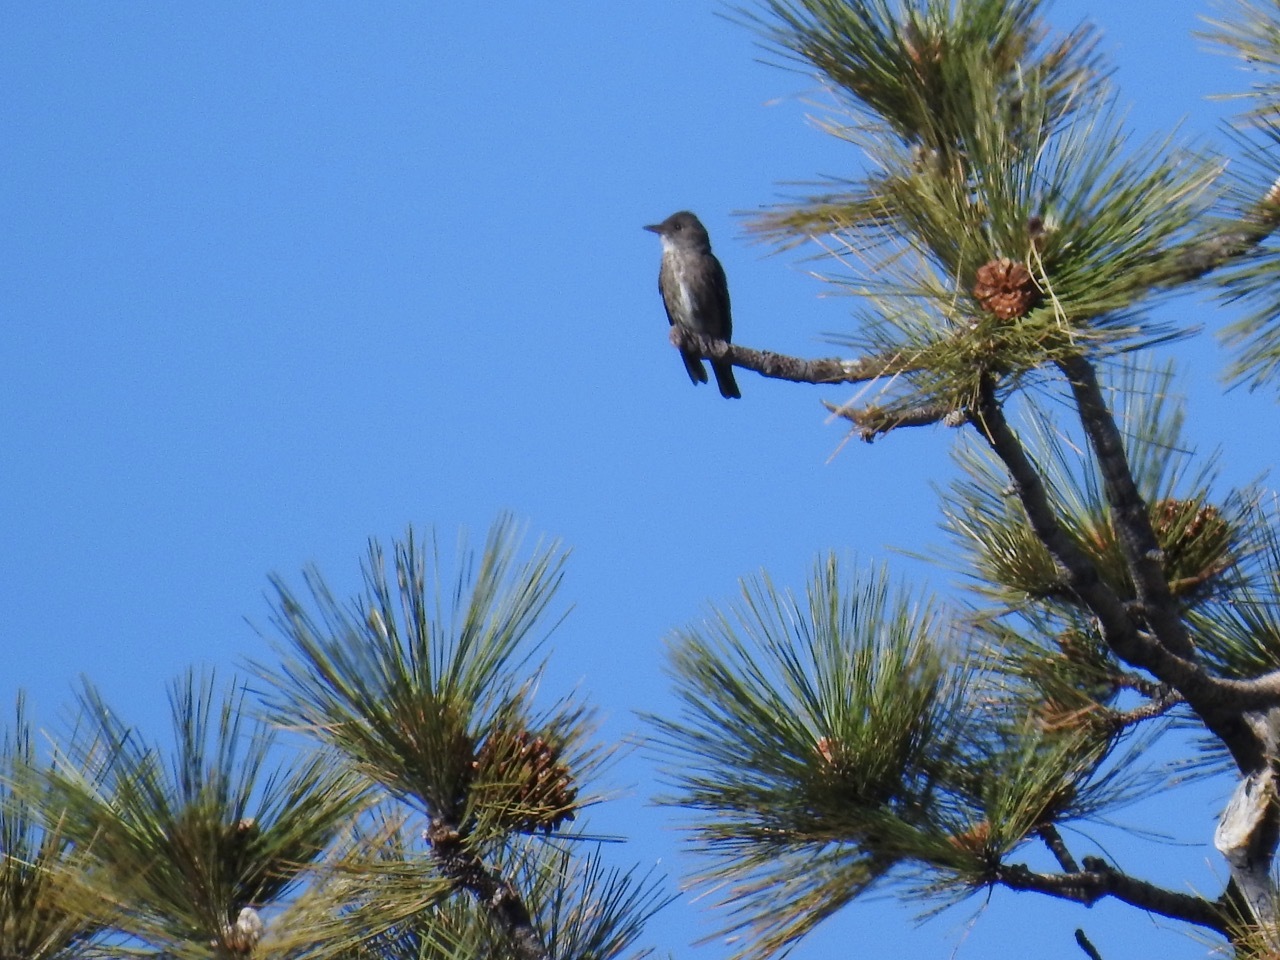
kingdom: Animalia
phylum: Chordata
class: Aves
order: Passeriformes
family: Tyrannidae
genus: Contopus
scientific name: Contopus cooperi
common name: Olive-sided flycatcher
